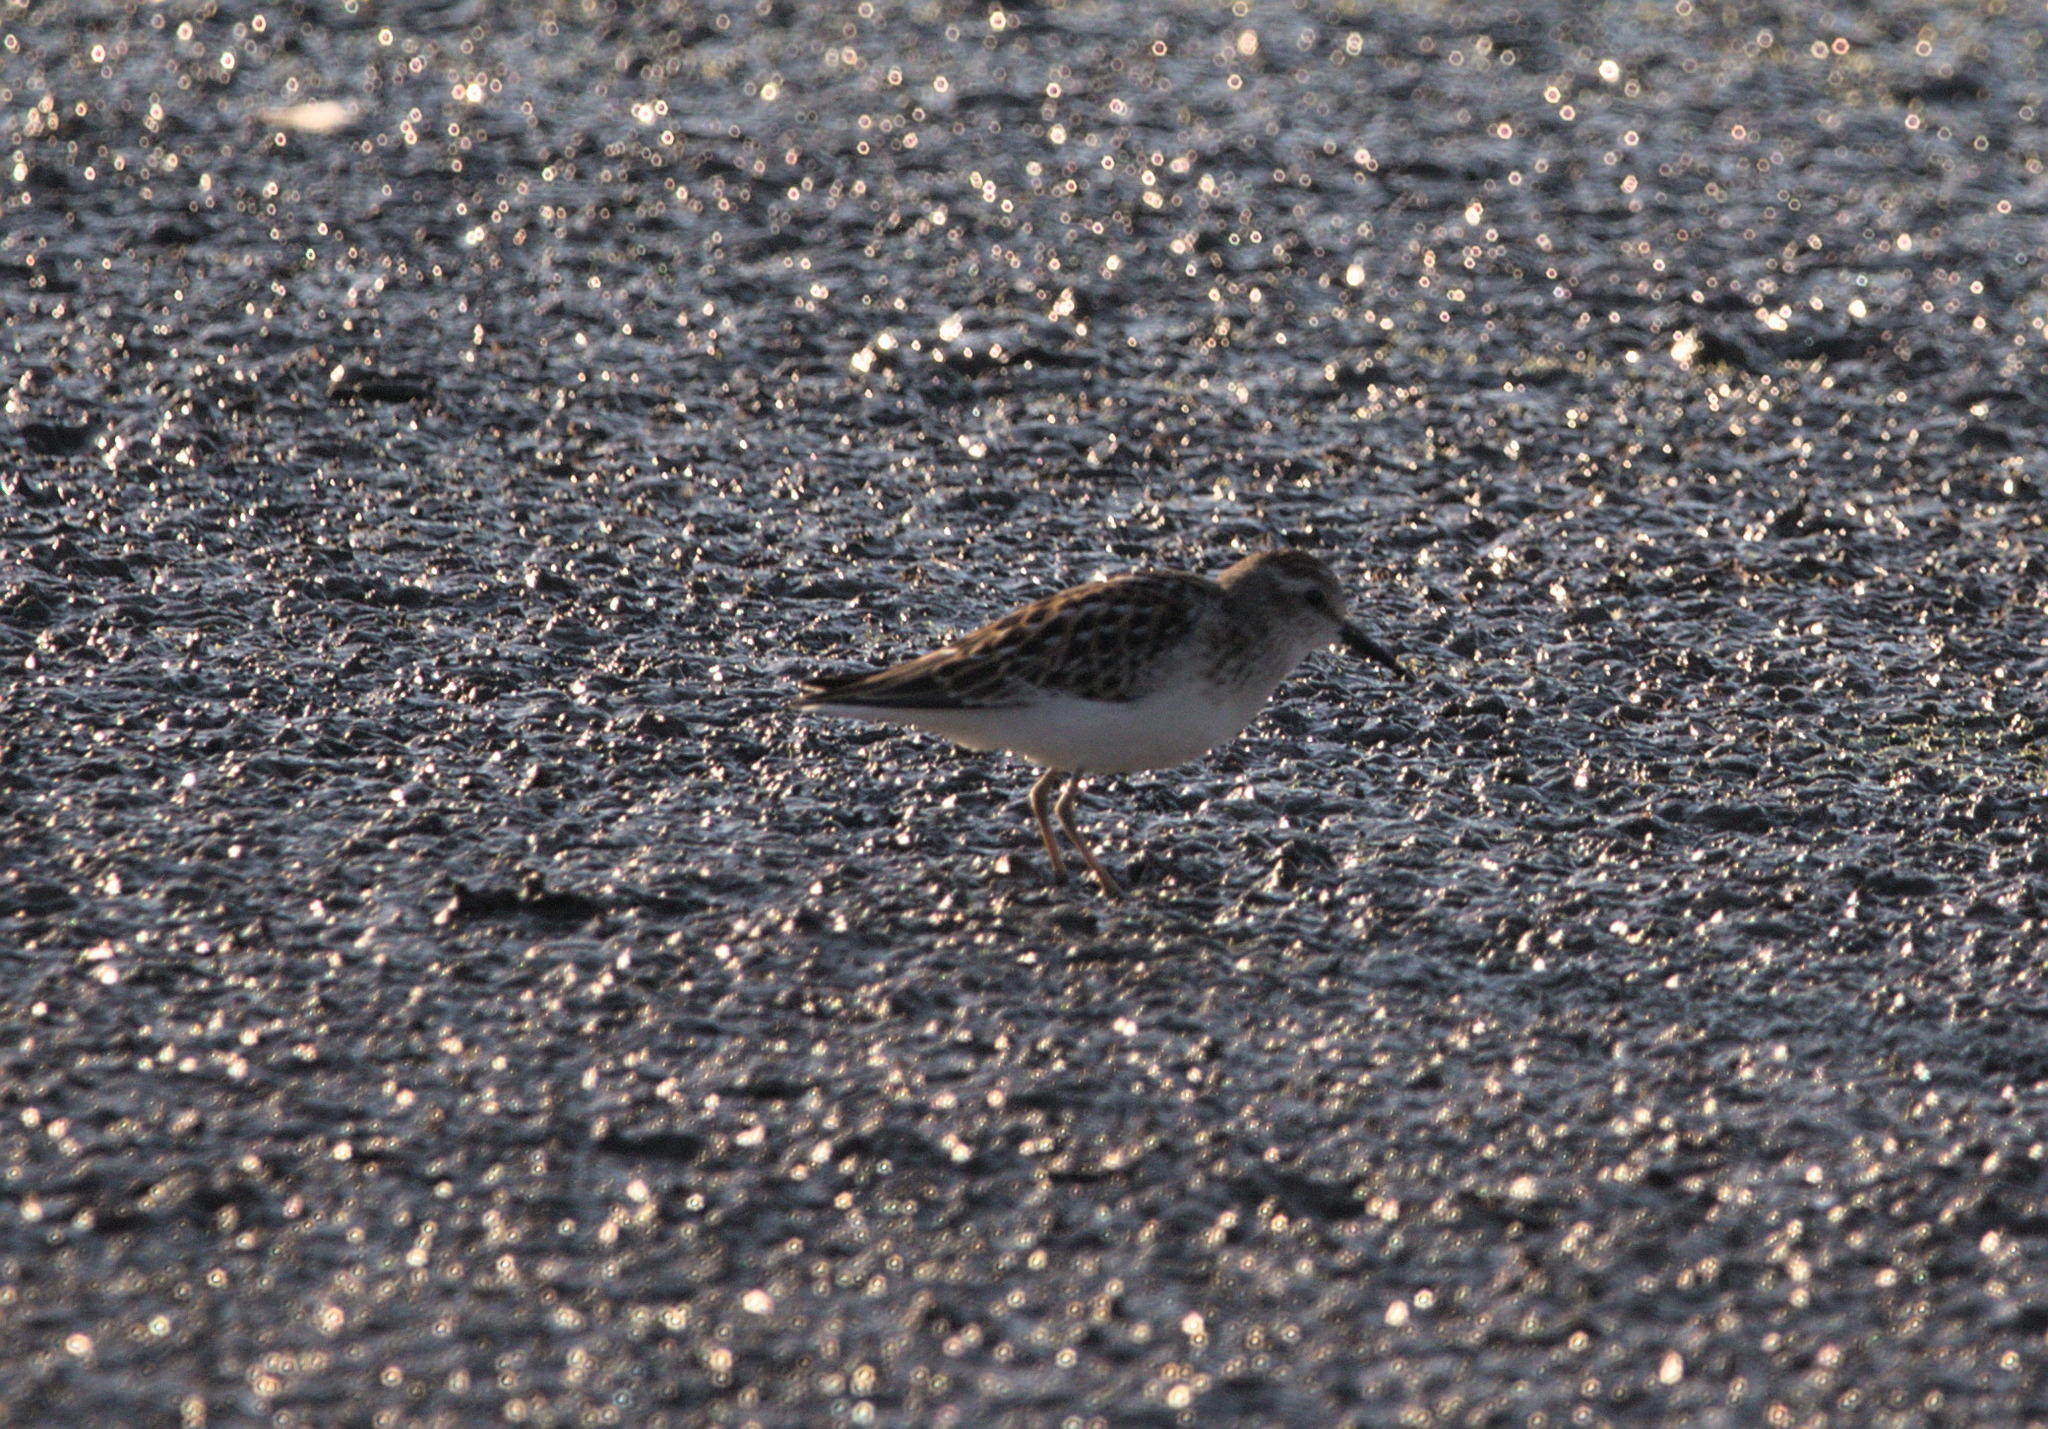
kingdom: Animalia
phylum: Chordata
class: Aves
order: Charadriiformes
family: Scolopacidae
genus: Calidris
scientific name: Calidris minutilla
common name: Least sandpiper
